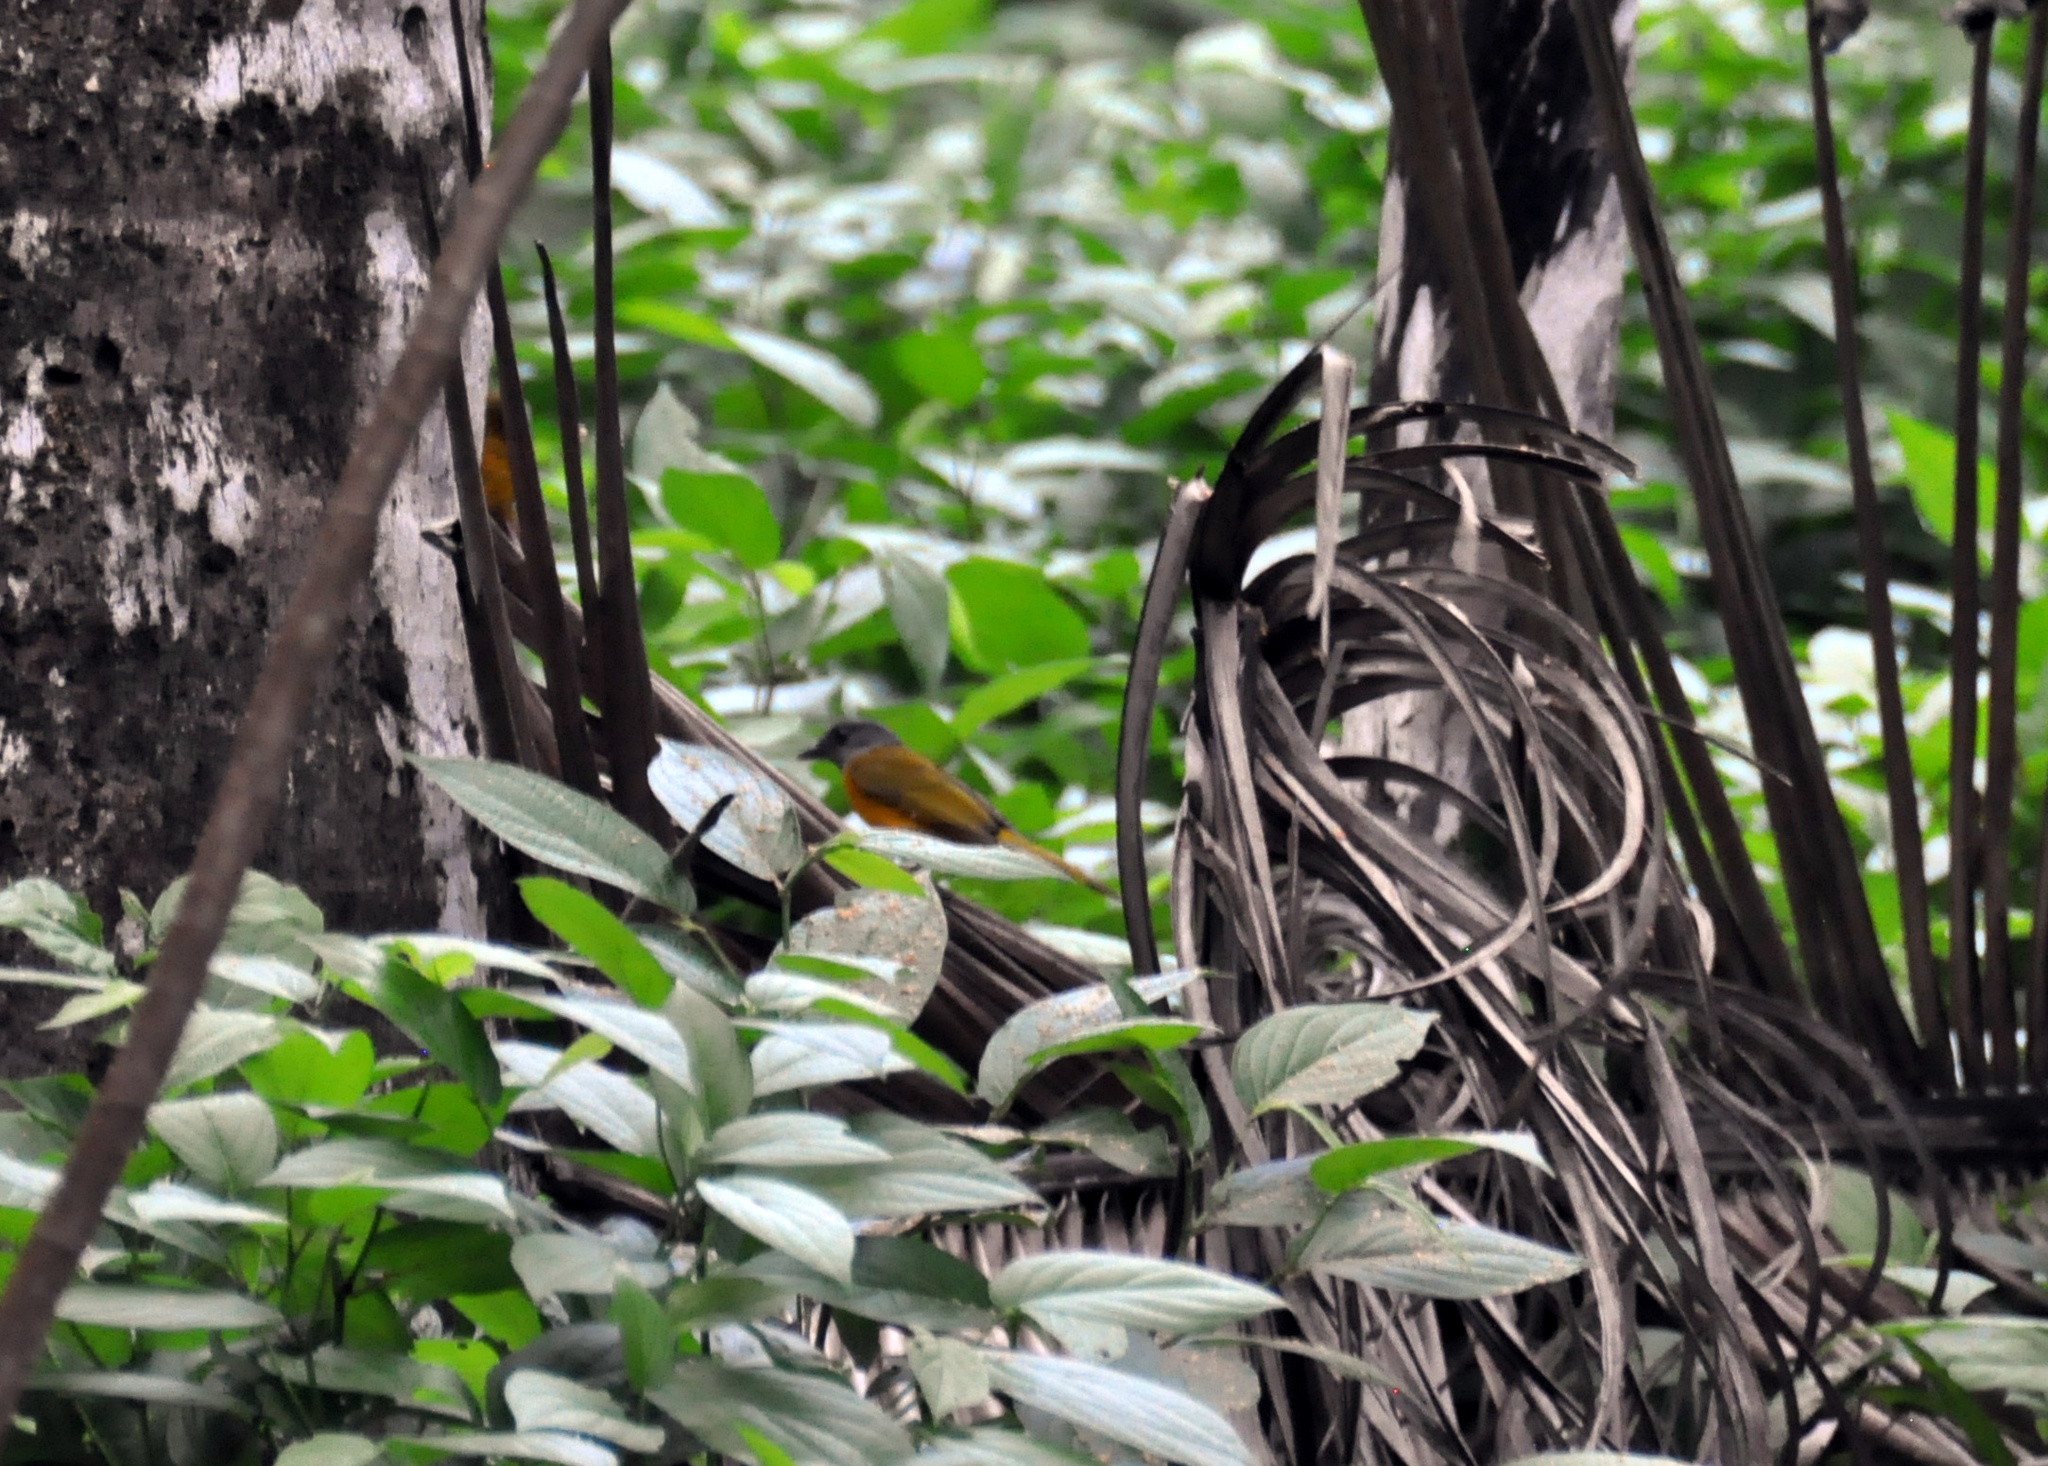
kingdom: Animalia
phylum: Chordata
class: Aves
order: Passeriformes
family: Thraupidae
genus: Eucometis
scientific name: Eucometis penicillata
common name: Grey-headed tanager
